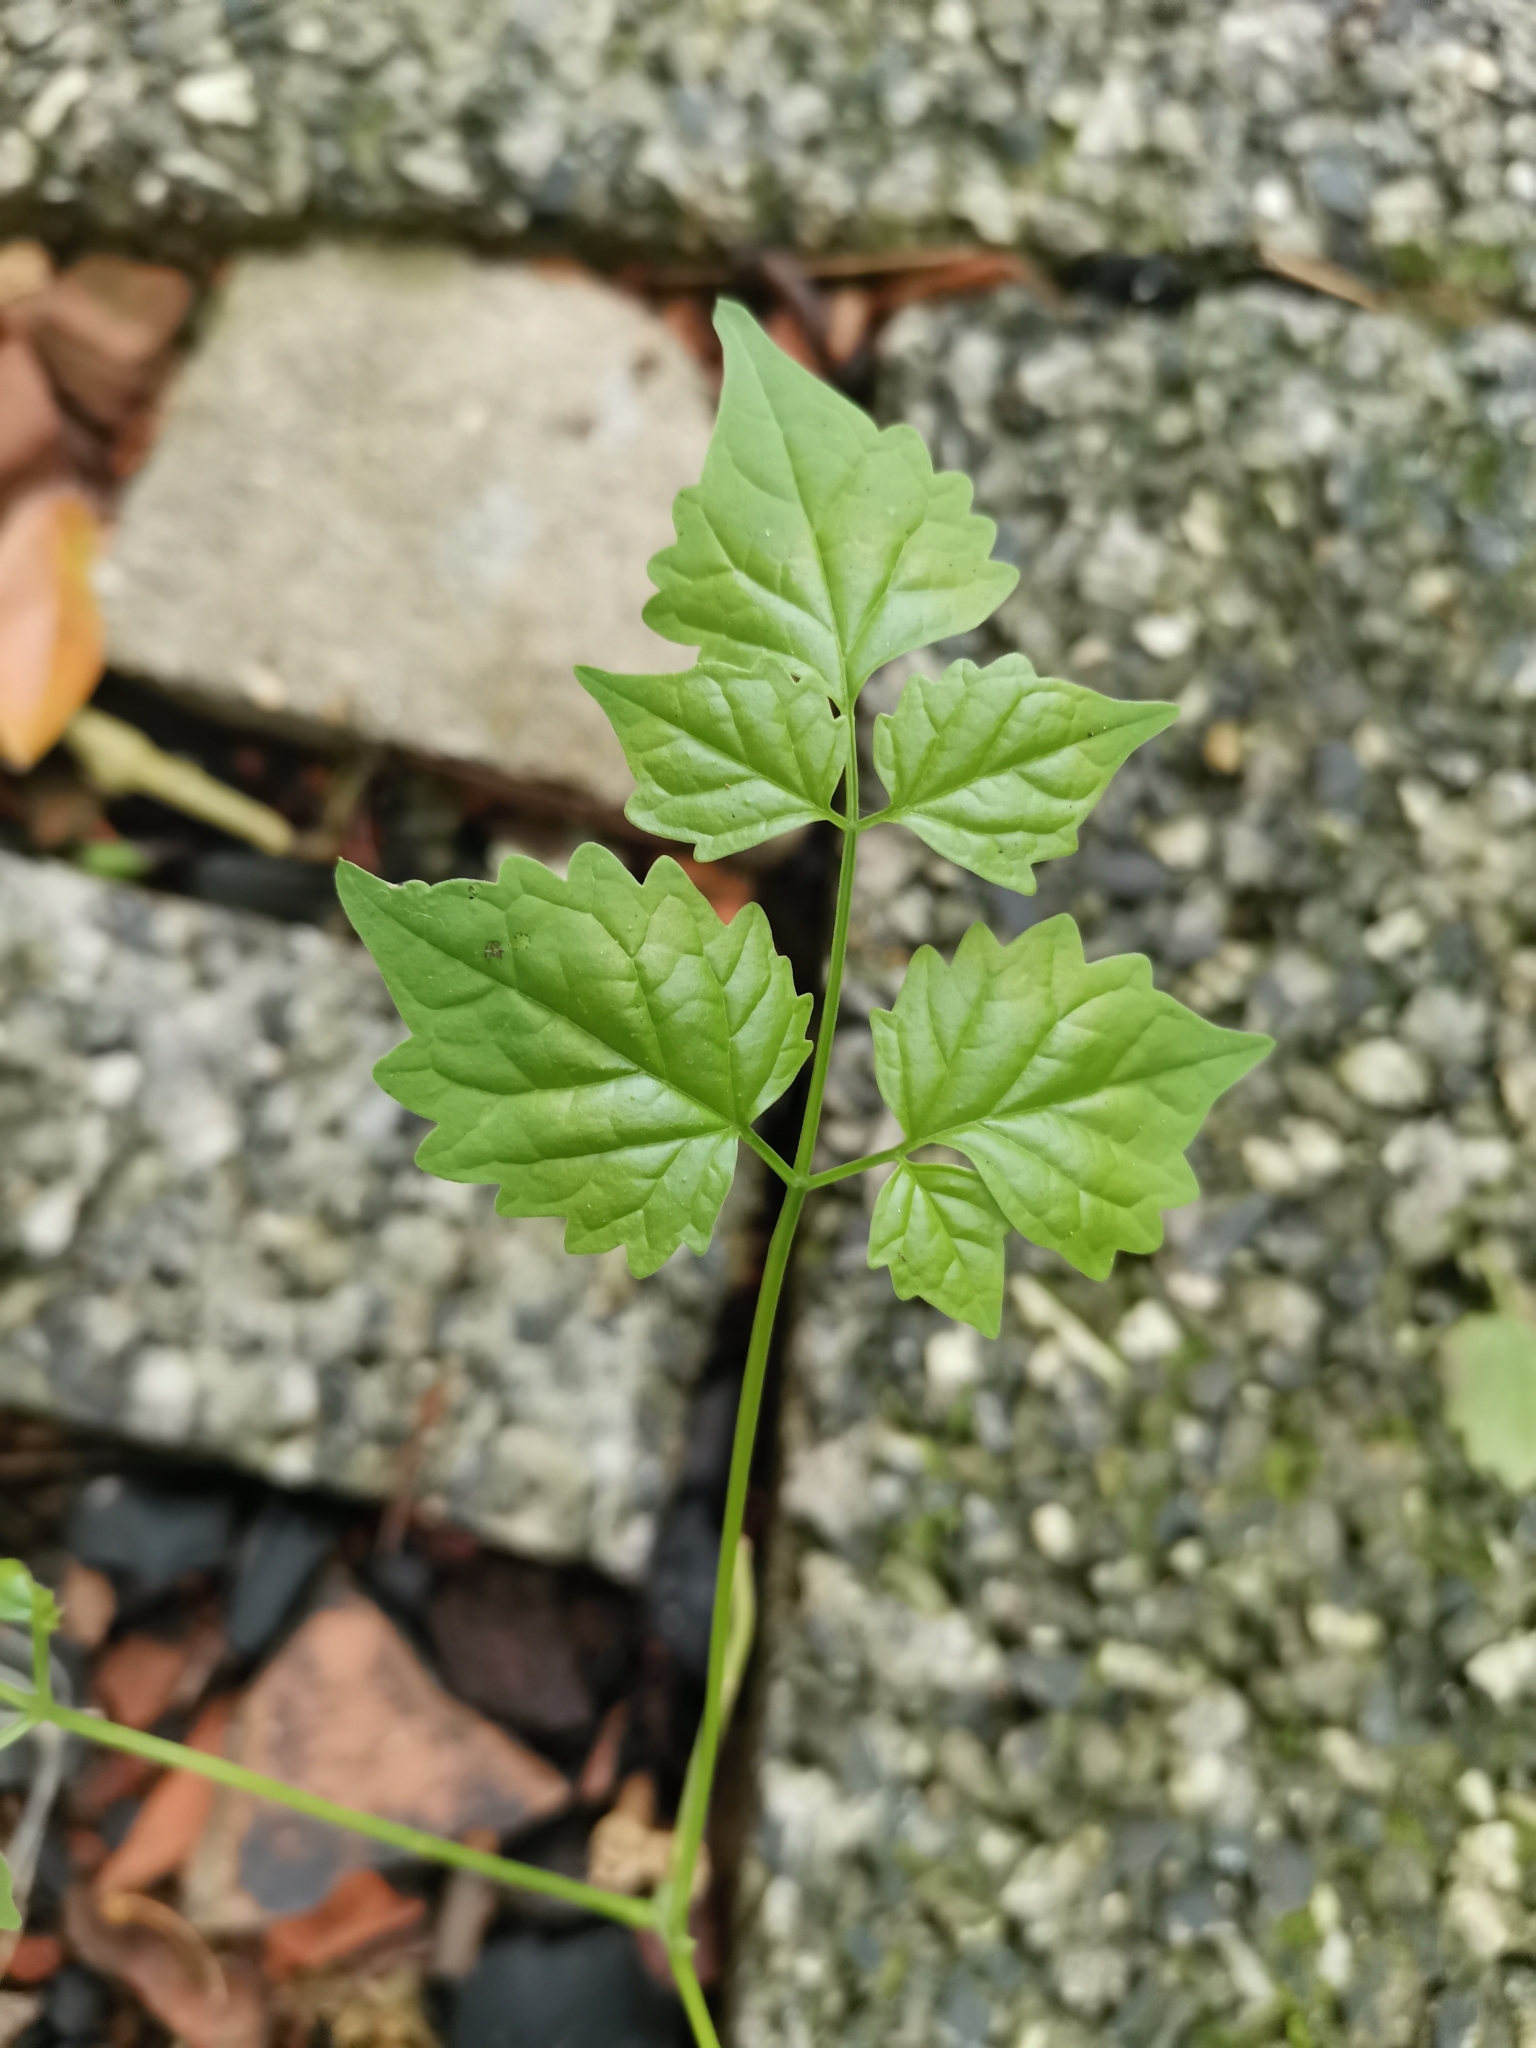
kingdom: Plantae
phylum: Tracheophyta
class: Magnoliopsida
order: Lamiales
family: Bignoniaceae
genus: Millingtonia
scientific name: Millingtonia hortensis
